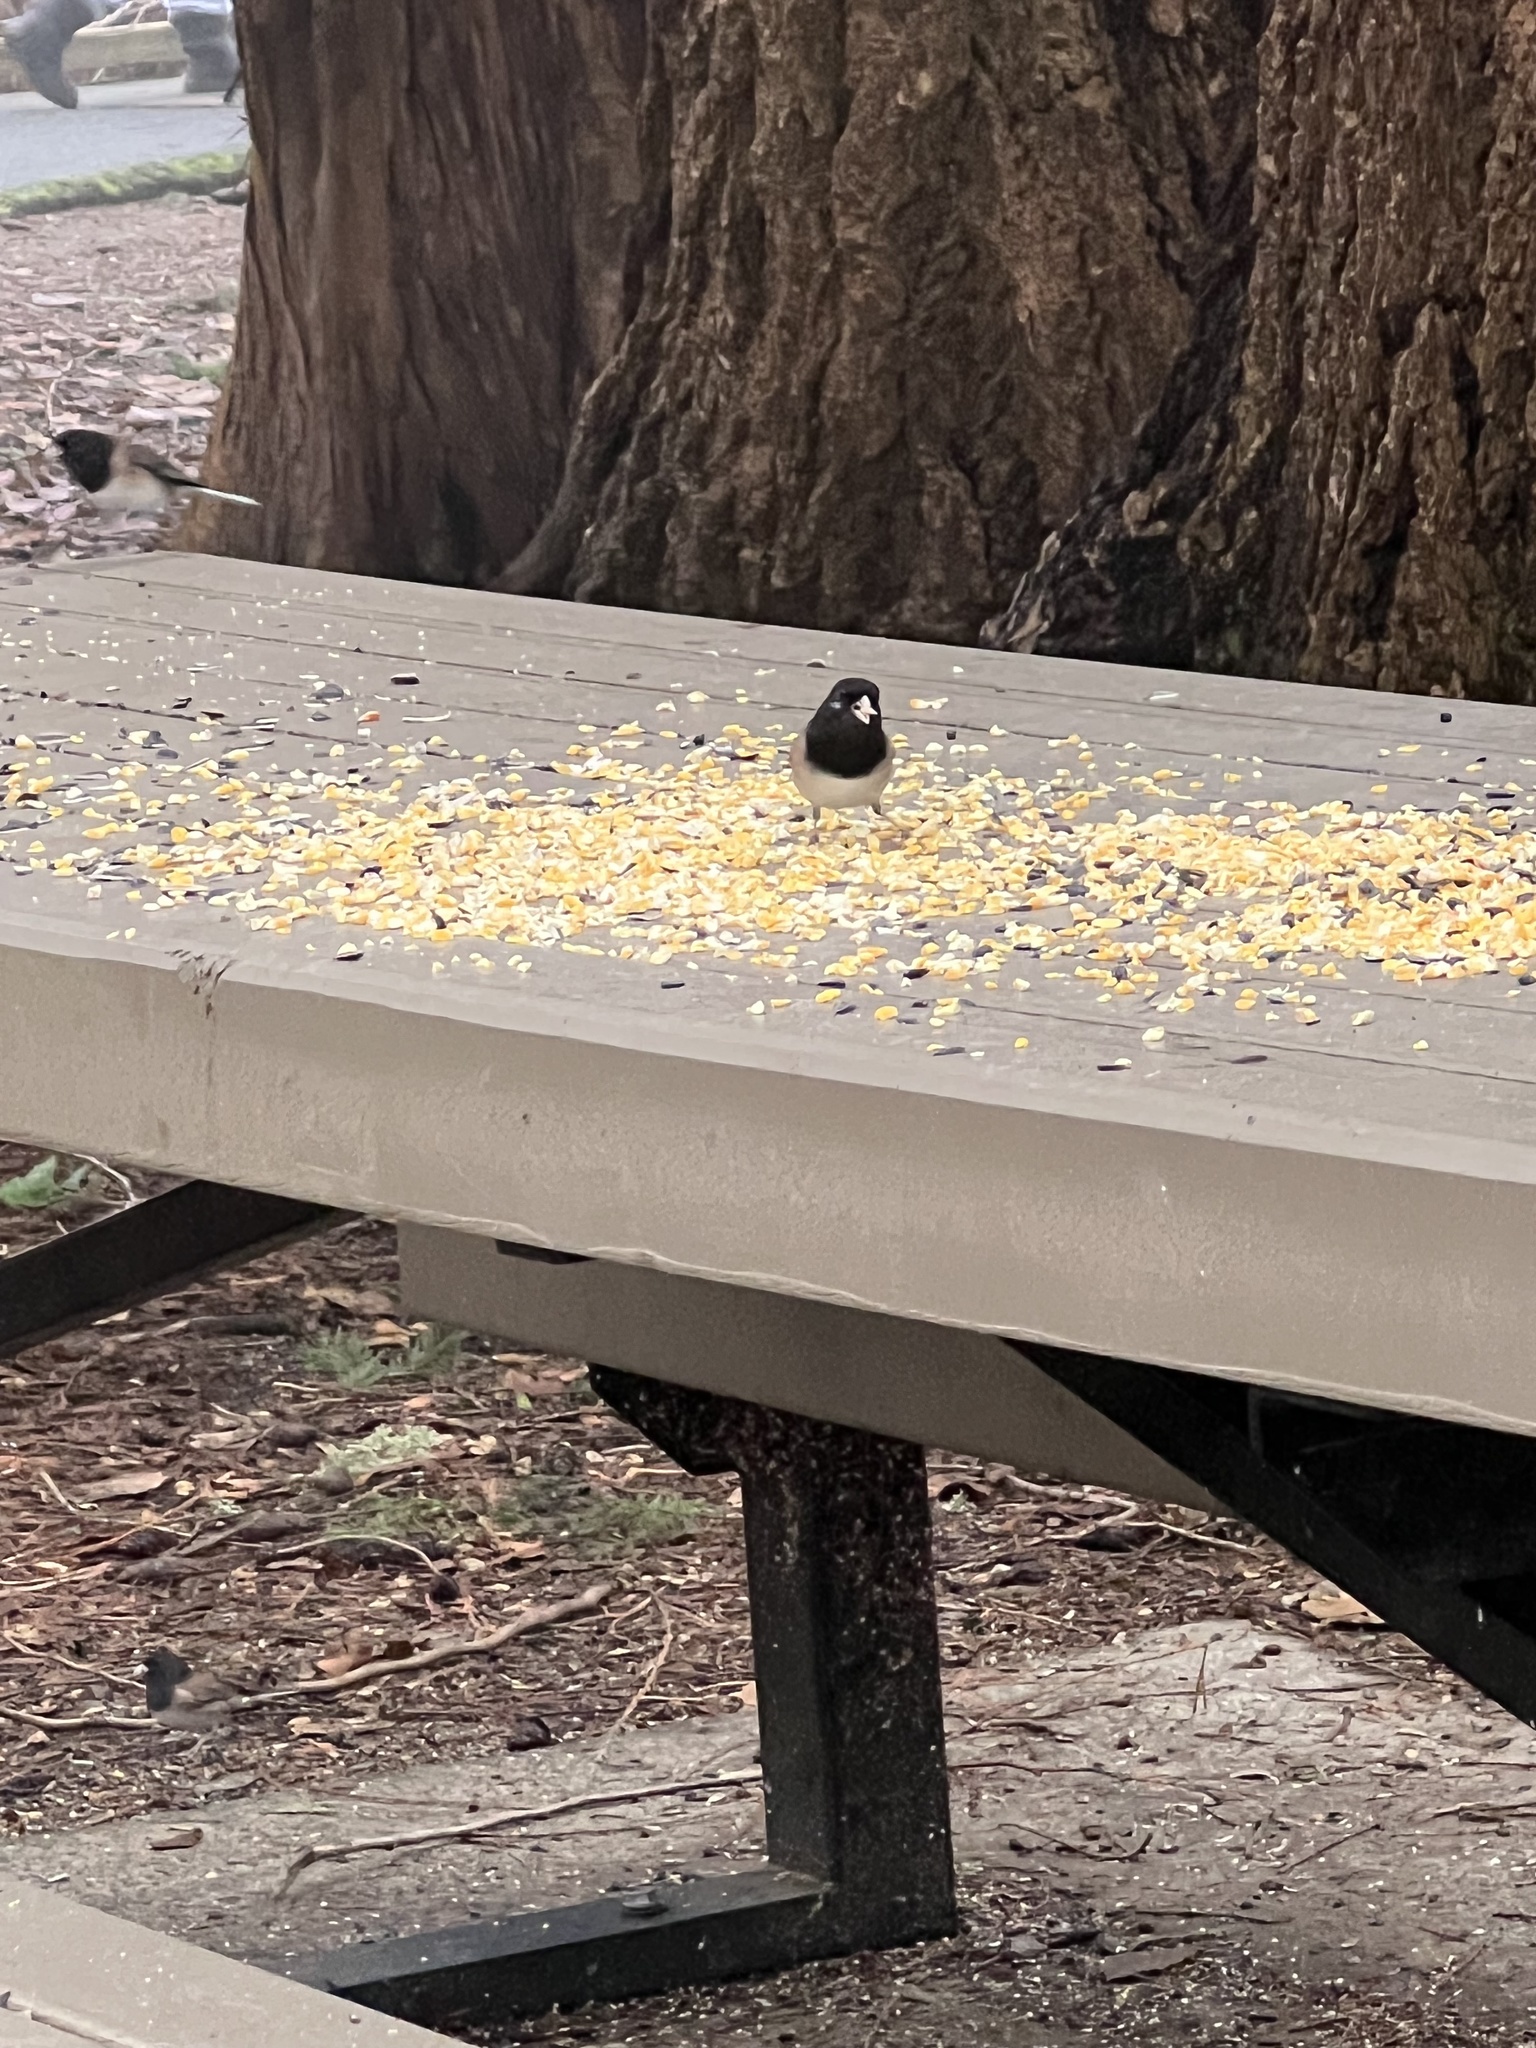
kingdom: Animalia
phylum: Chordata
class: Aves
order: Passeriformes
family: Passerellidae
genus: Junco
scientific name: Junco hyemalis
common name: Dark-eyed junco
